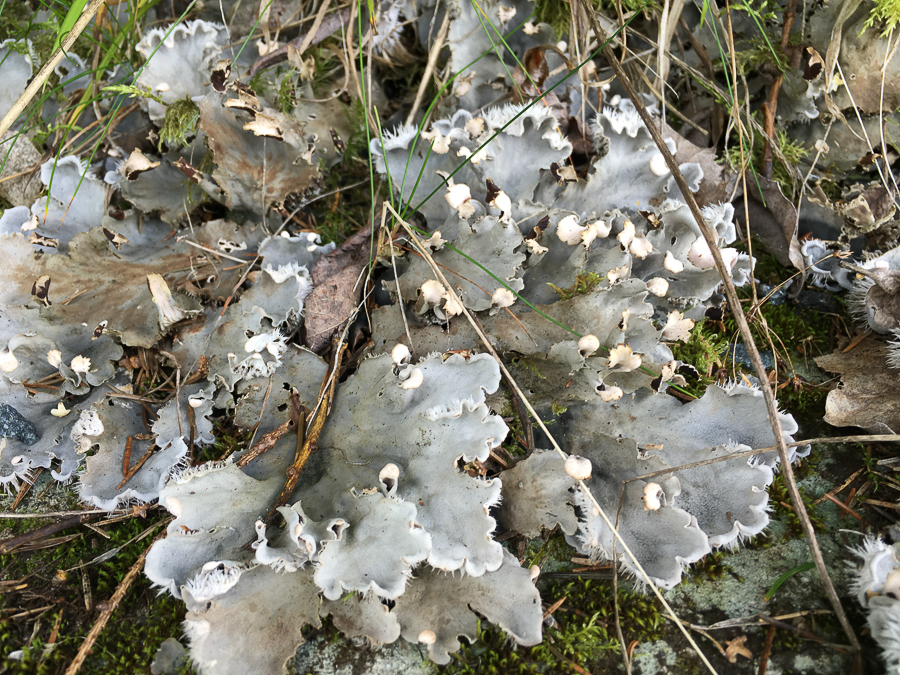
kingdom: Fungi
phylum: Ascomycota
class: Lecanoromycetes
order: Peltigerales
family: Peltigeraceae
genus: Peltigera
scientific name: Peltigera canina
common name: Dog pelt lichen
